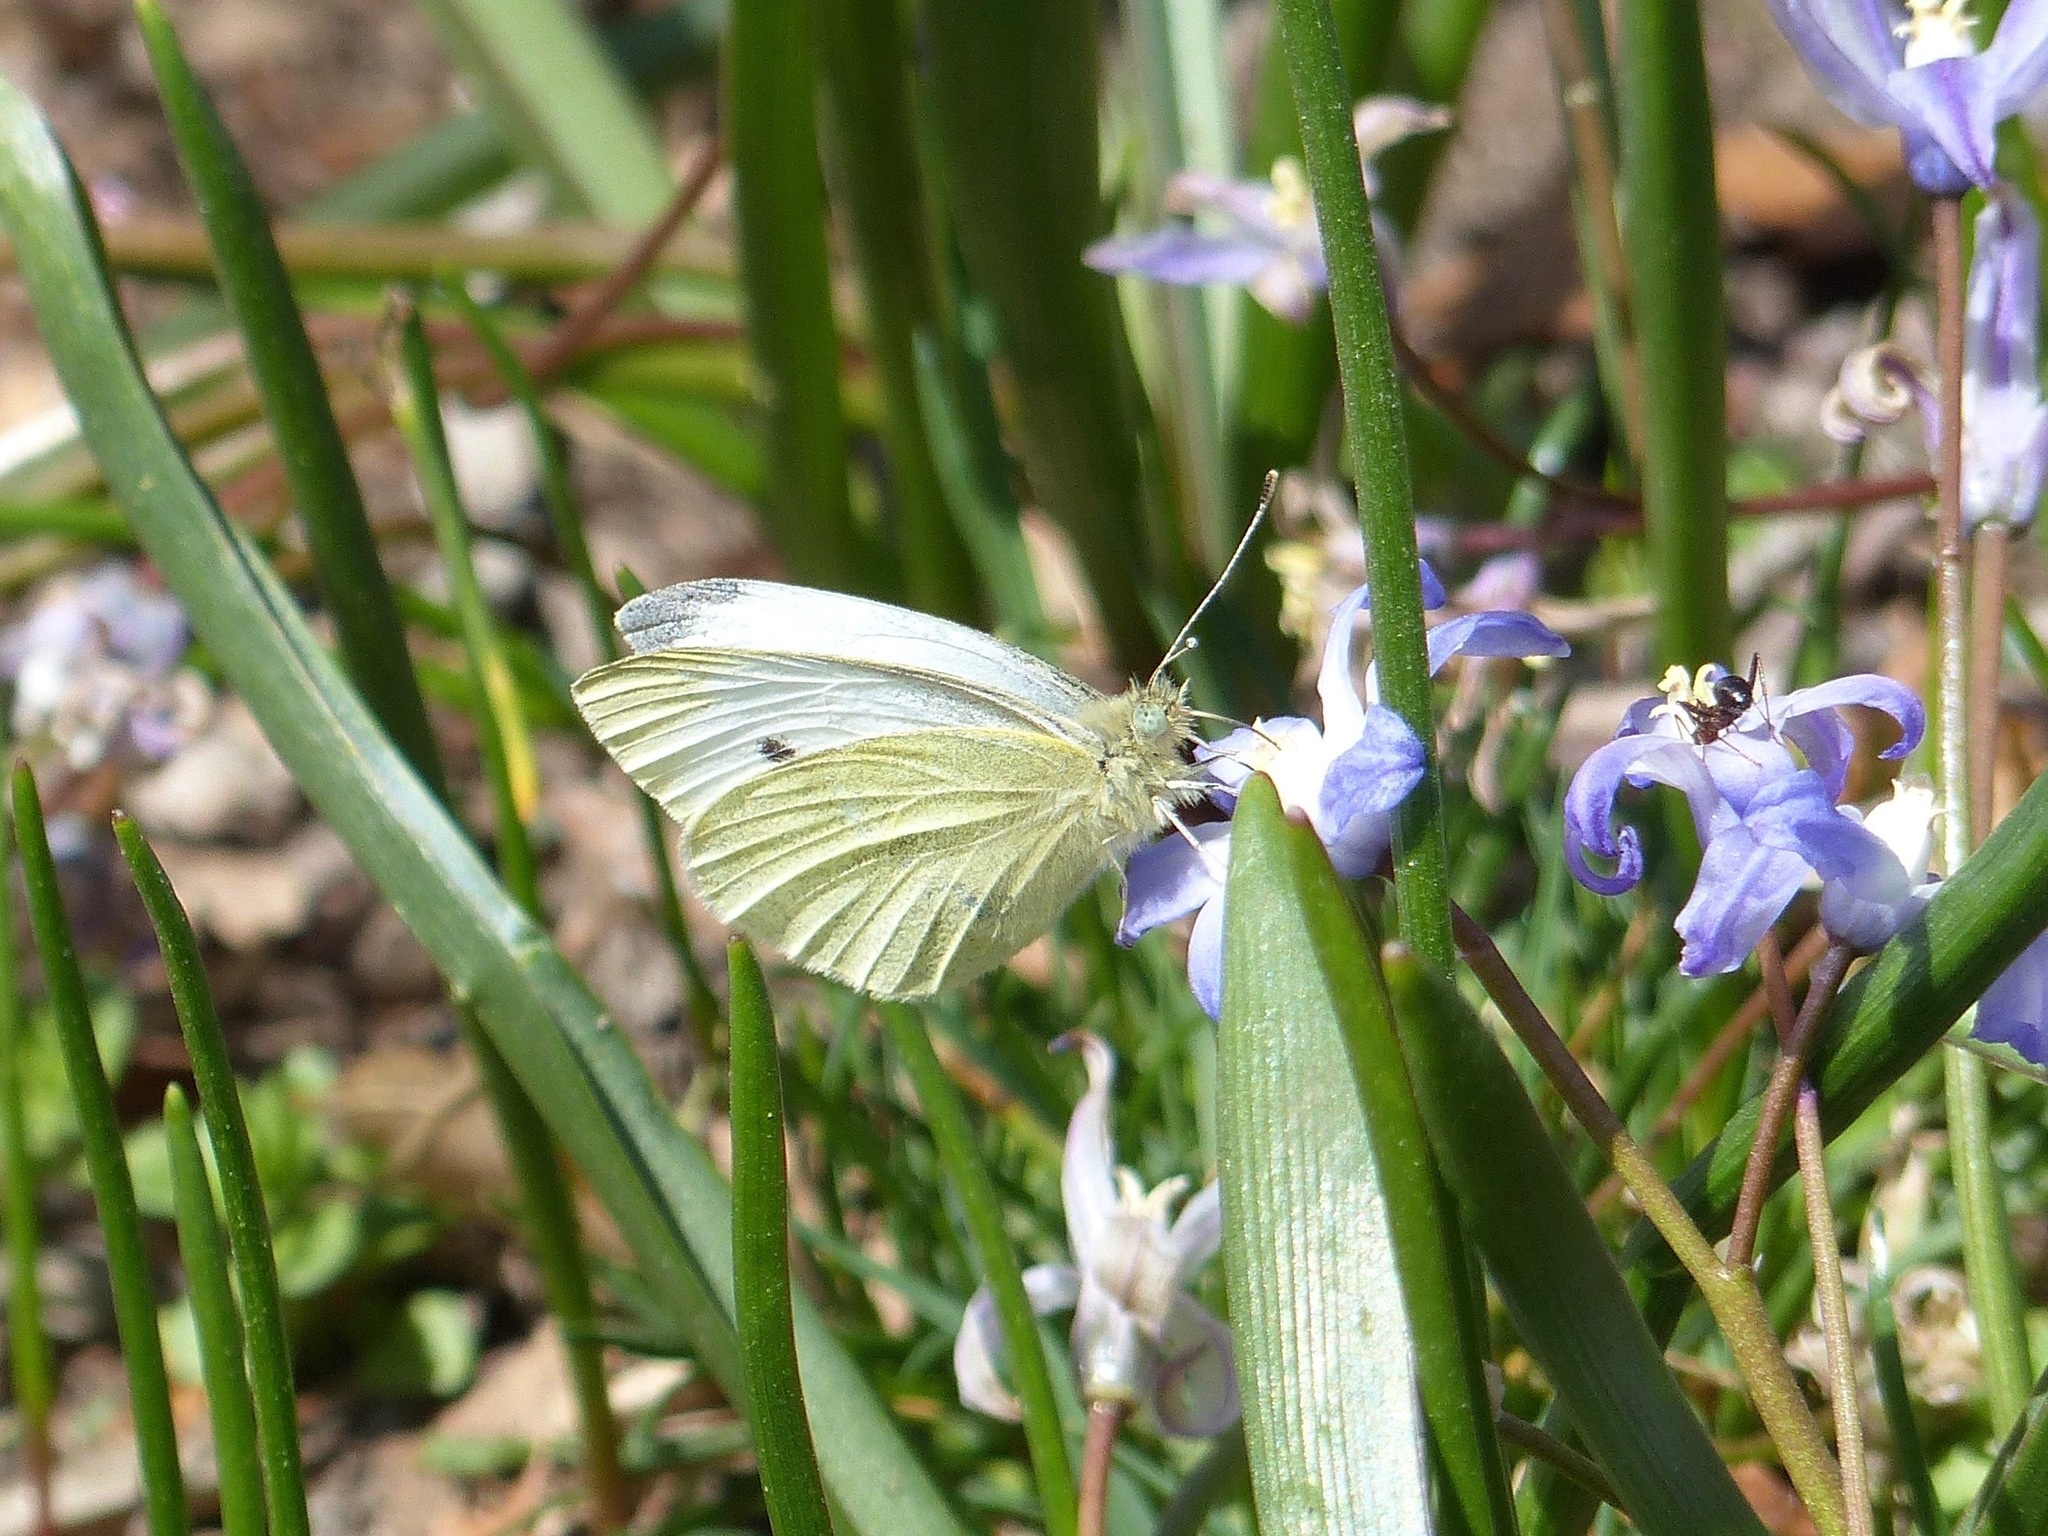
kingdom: Animalia
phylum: Arthropoda
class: Insecta
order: Lepidoptera
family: Pieridae
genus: Pieris
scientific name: Pieris rapae
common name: Small white
